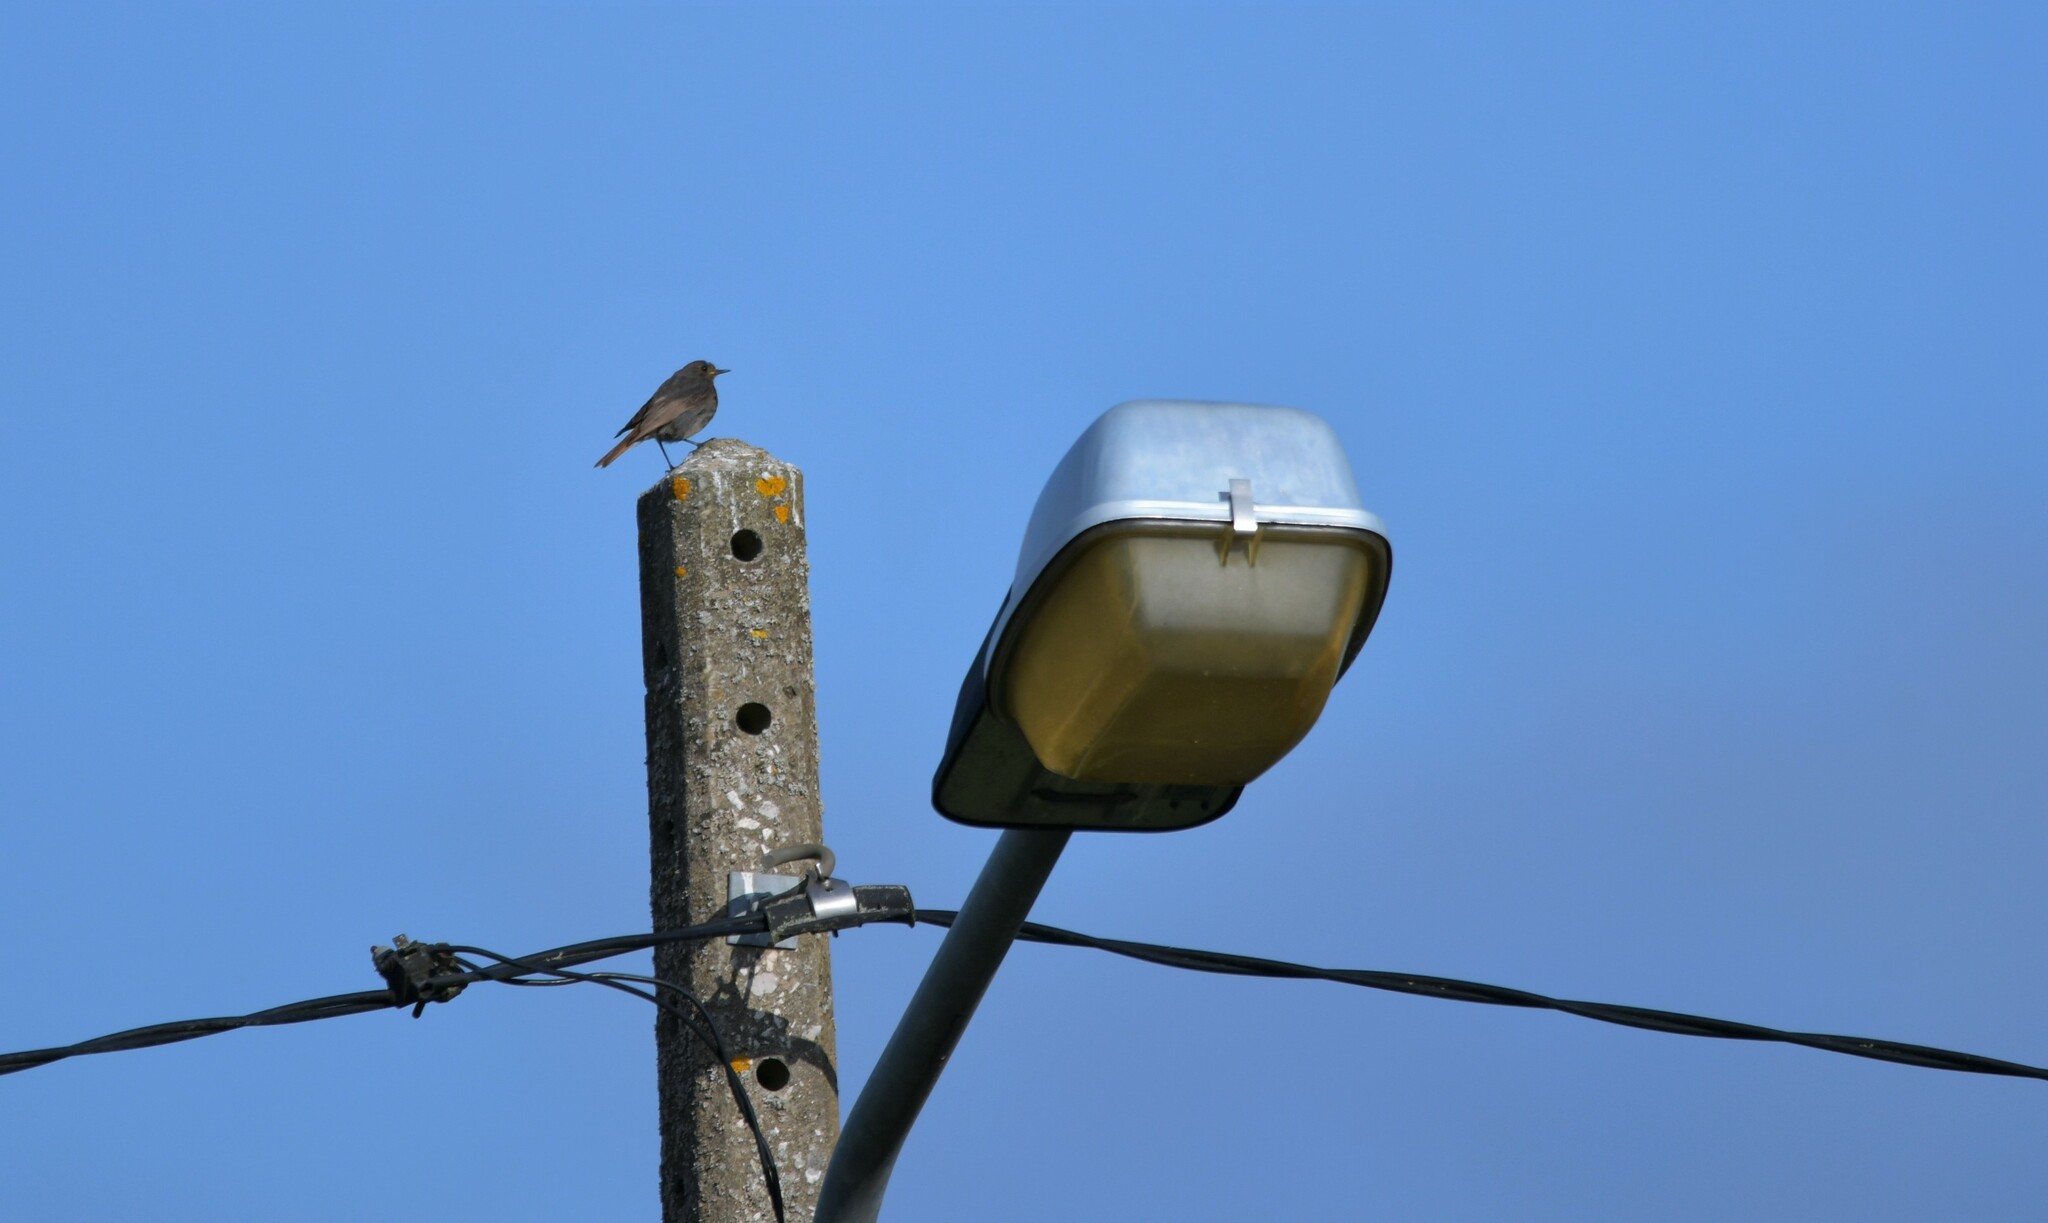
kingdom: Animalia
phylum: Chordata
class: Aves
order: Passeriformes
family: Muscicapidae
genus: Phoenicurus
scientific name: Phoenicurus ochruros
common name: Black redstart
